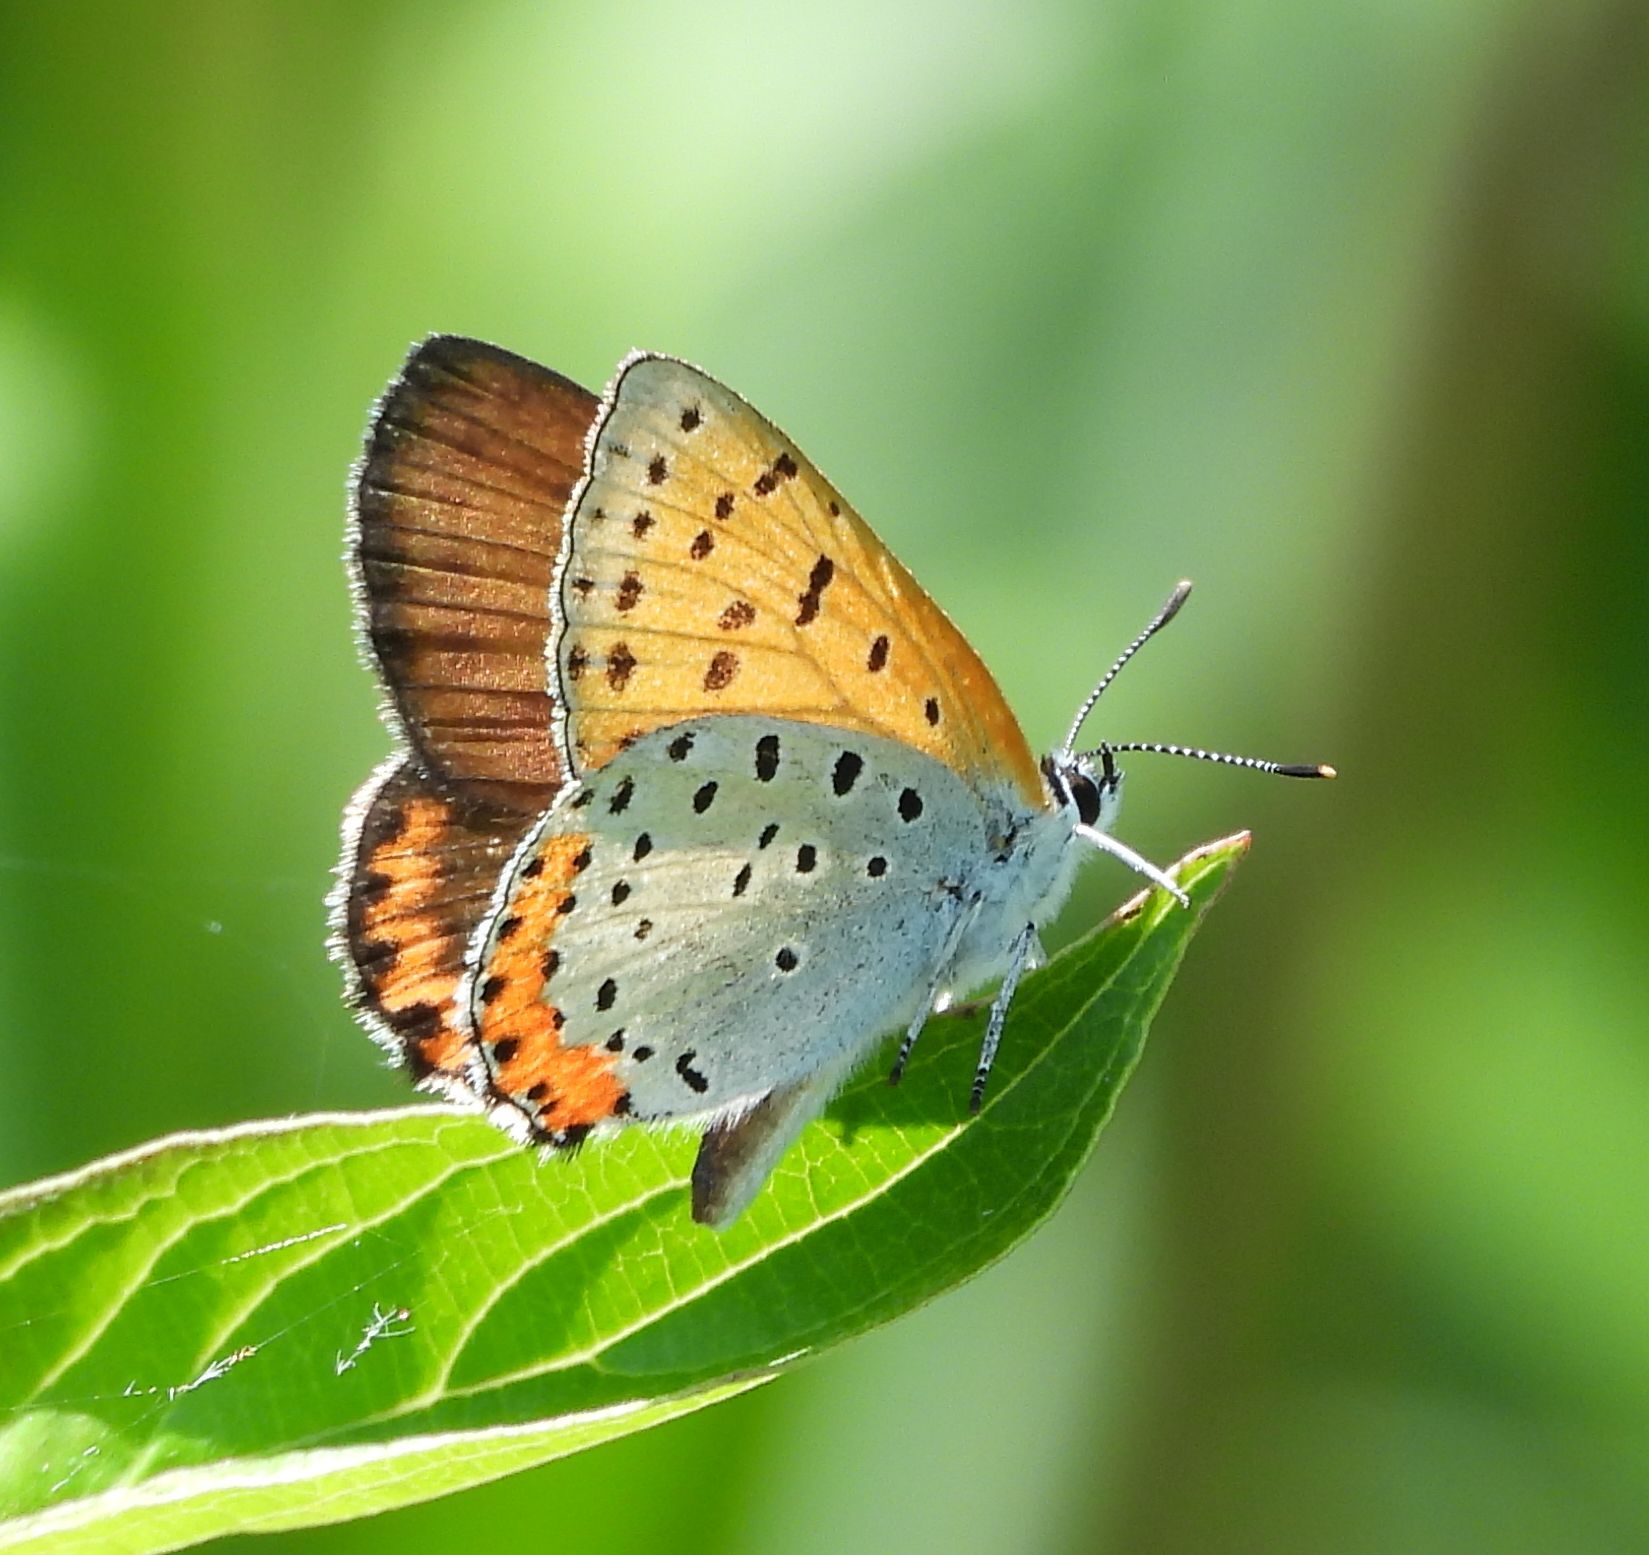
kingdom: Animalia
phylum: Arthropoda
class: Insecta
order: Lepidoptera
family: Lycaenidae
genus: Tharsalea
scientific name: Tharsalea hyllus
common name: Bronze copper
